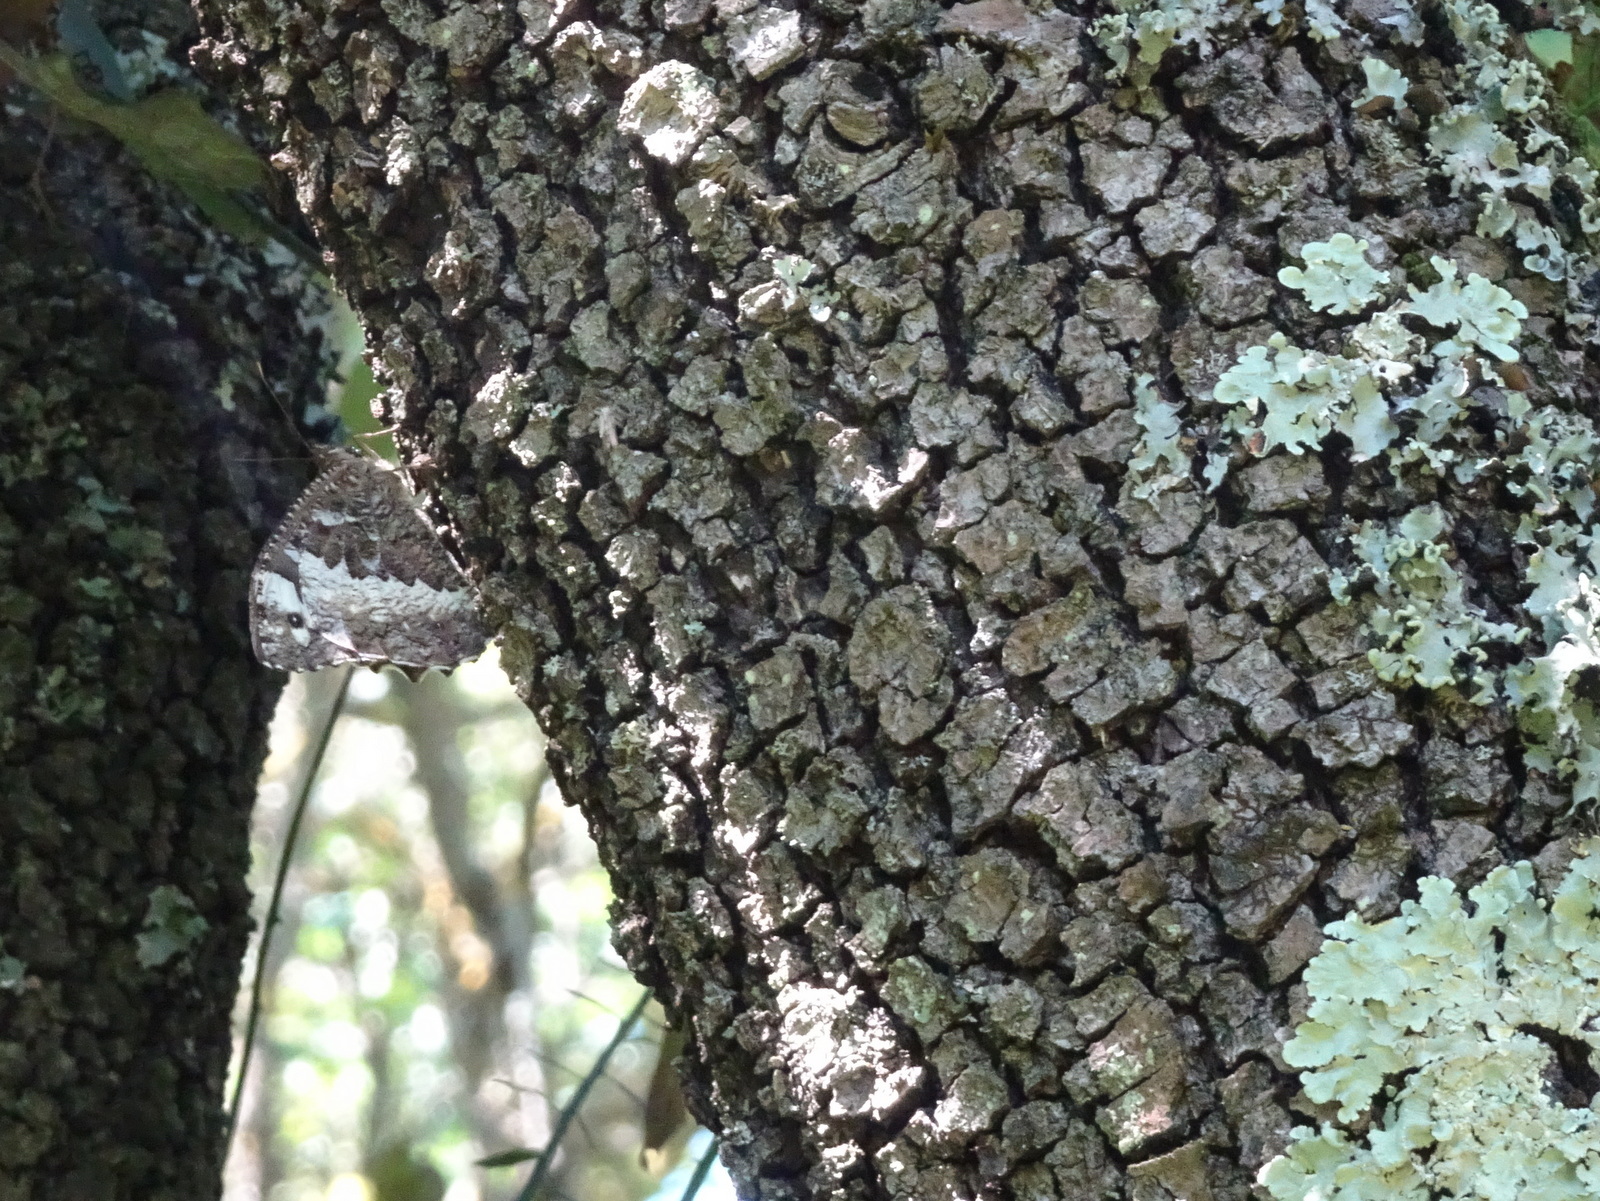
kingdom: Animalia
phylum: Arthropoda
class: Insecta
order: Lepidoptera
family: Lycaenidae
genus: Loweia
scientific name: Loweia tityrus
